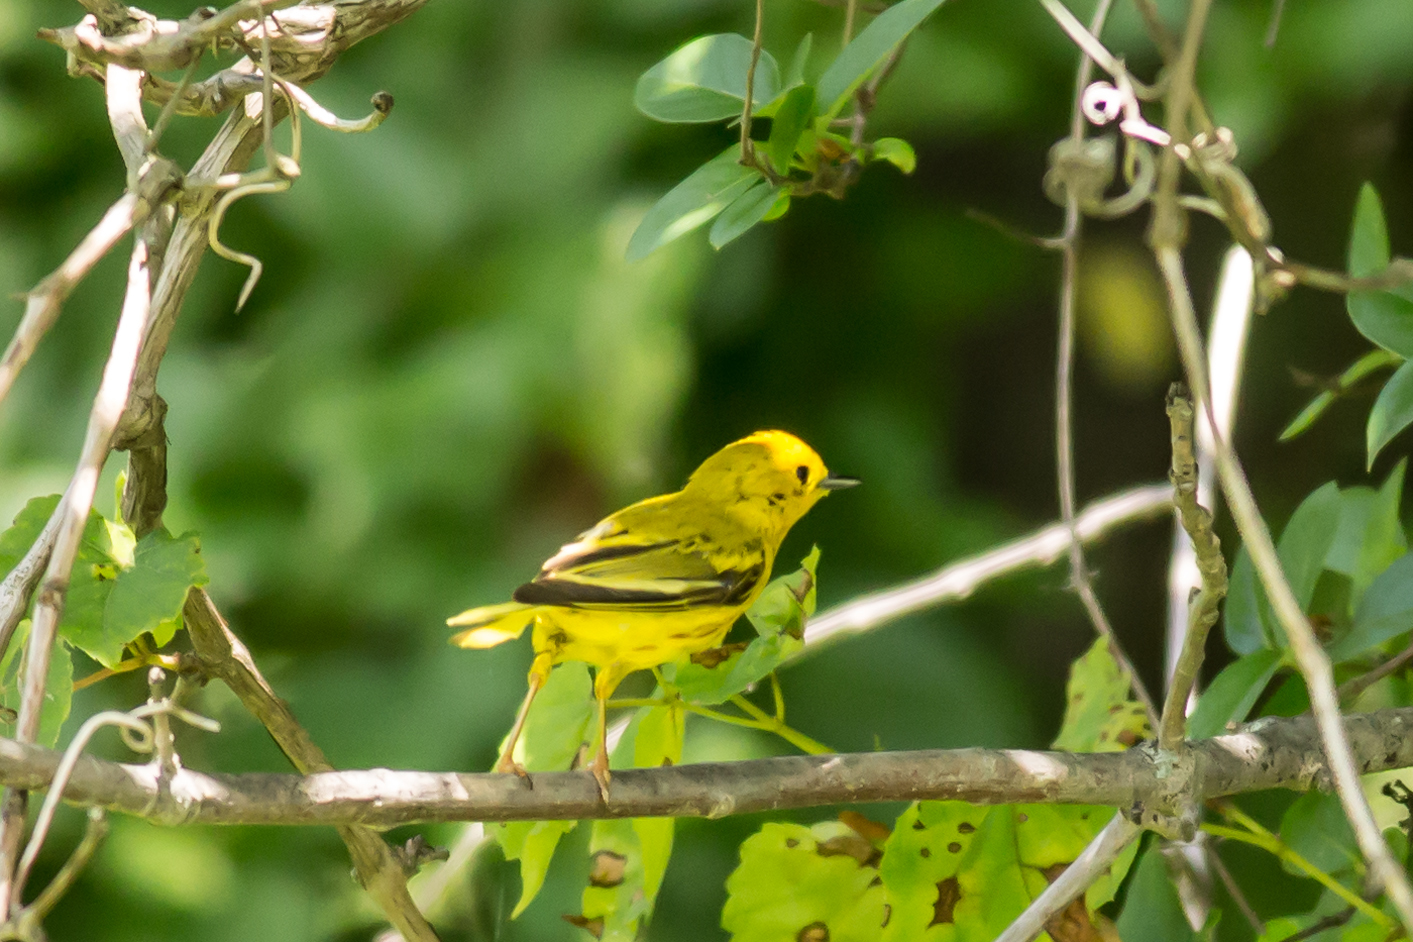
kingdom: Animalia
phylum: Chordata
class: Aves
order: Passeriformes
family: Parulidae
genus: Setophaga
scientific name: Setophaga petechia
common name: Yellow warbler
